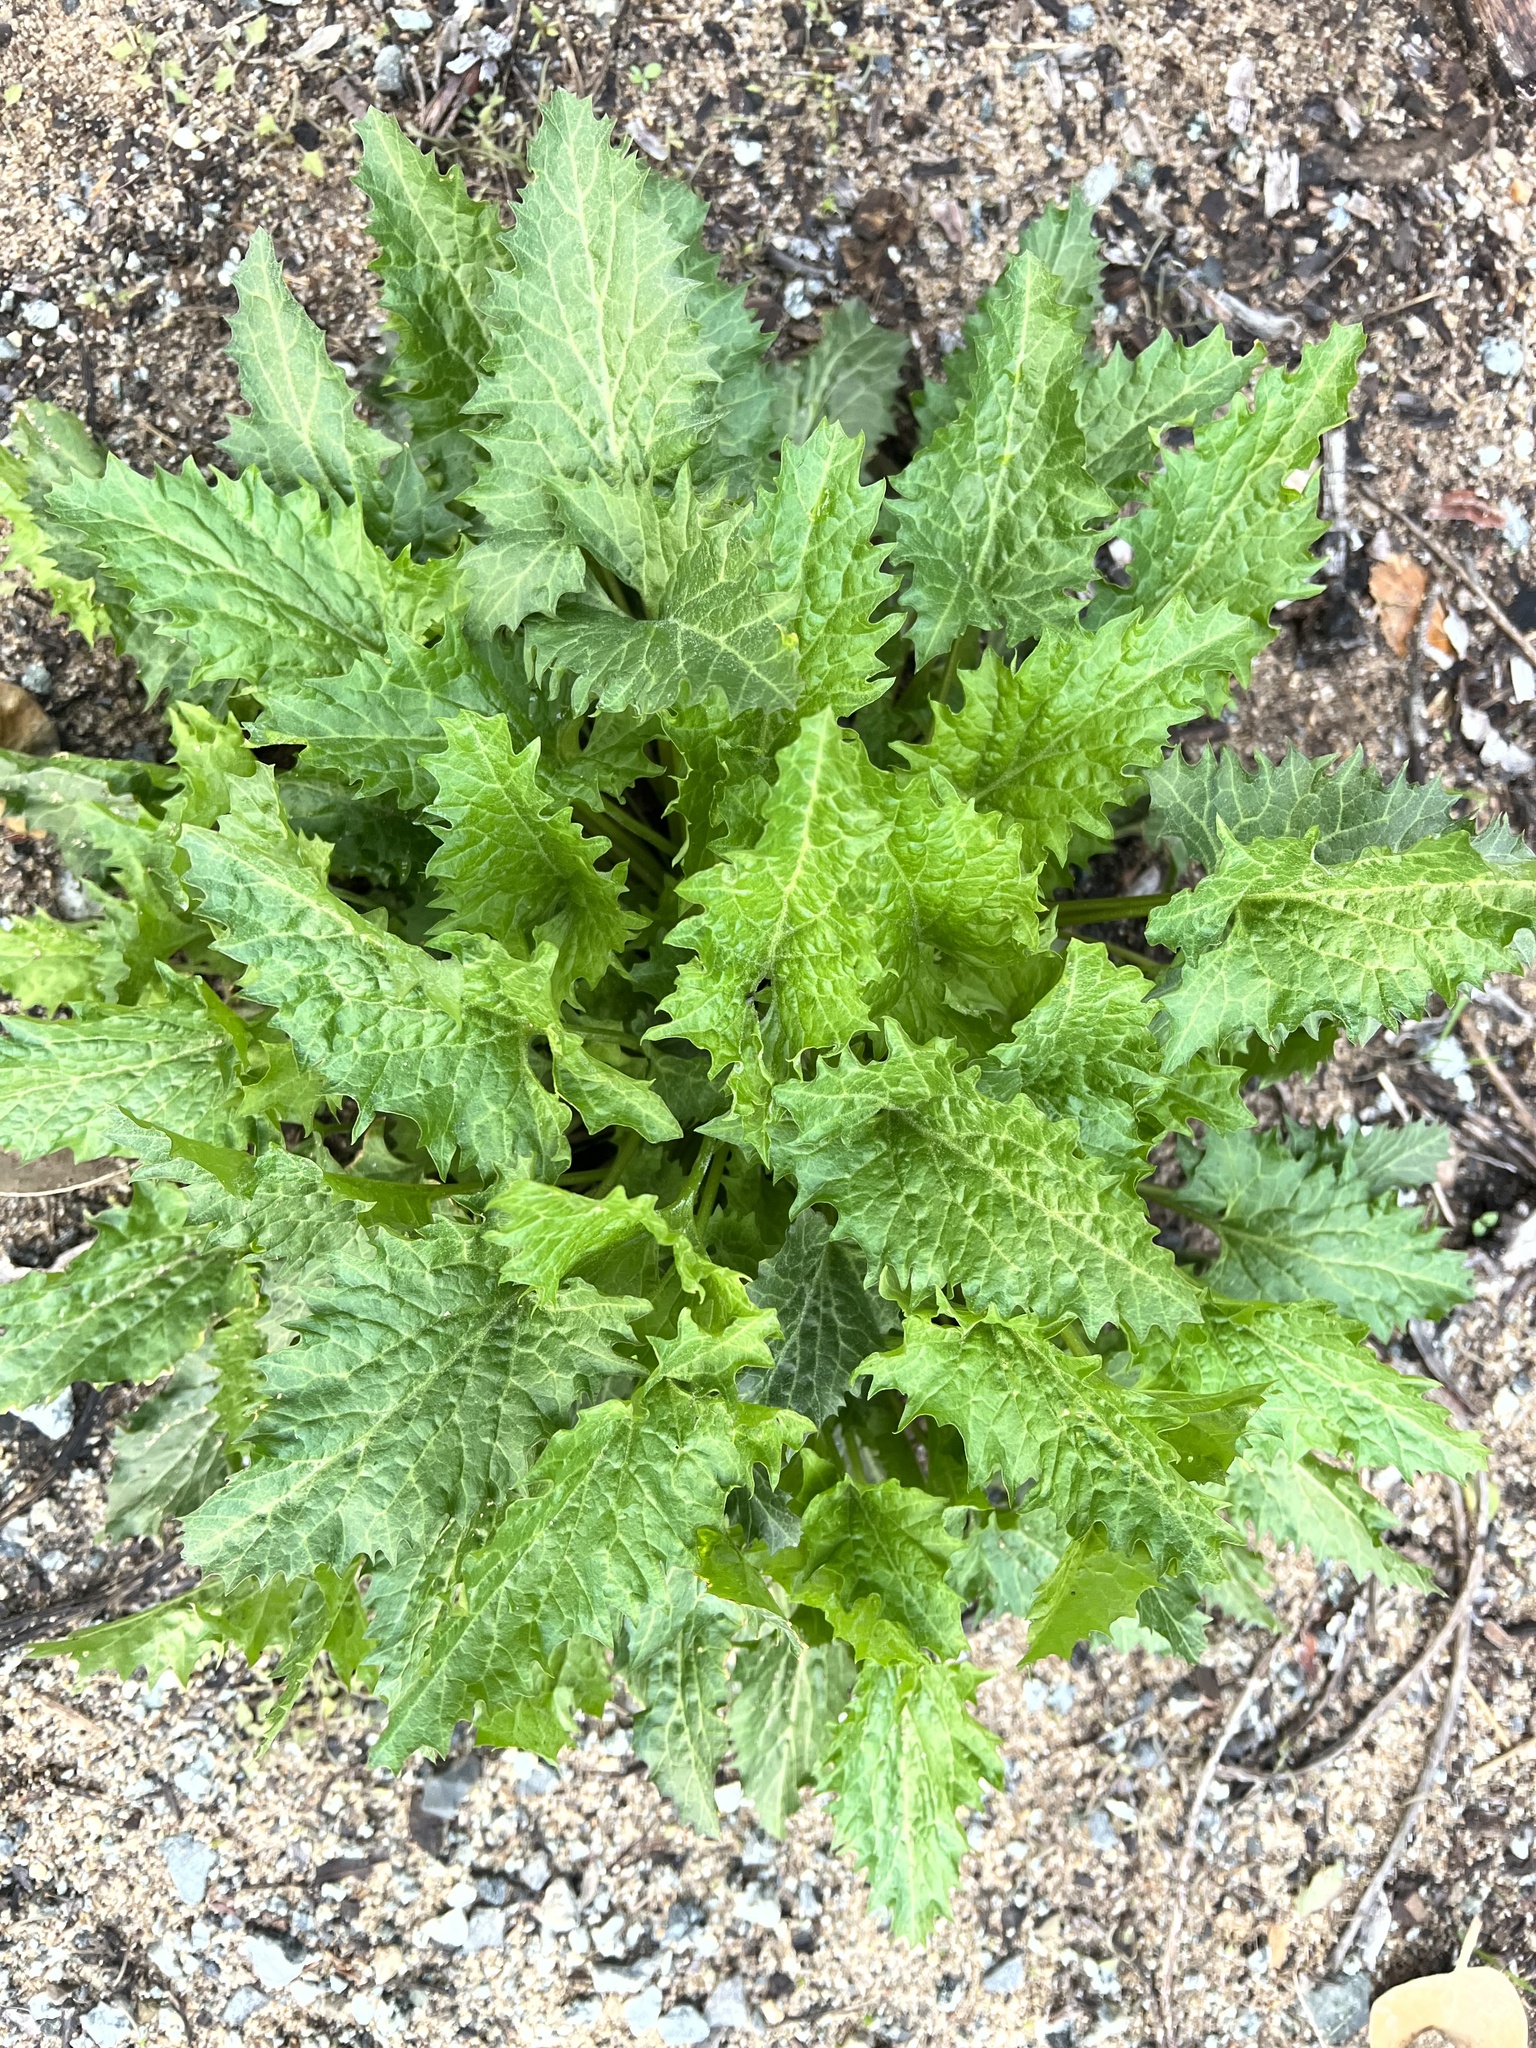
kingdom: Plantae
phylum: Tracheophyta
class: Magnoliopsida
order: Caryophyllales
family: Amaranthaceae
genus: Blitum
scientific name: Blitum californicum
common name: California goosefoot
